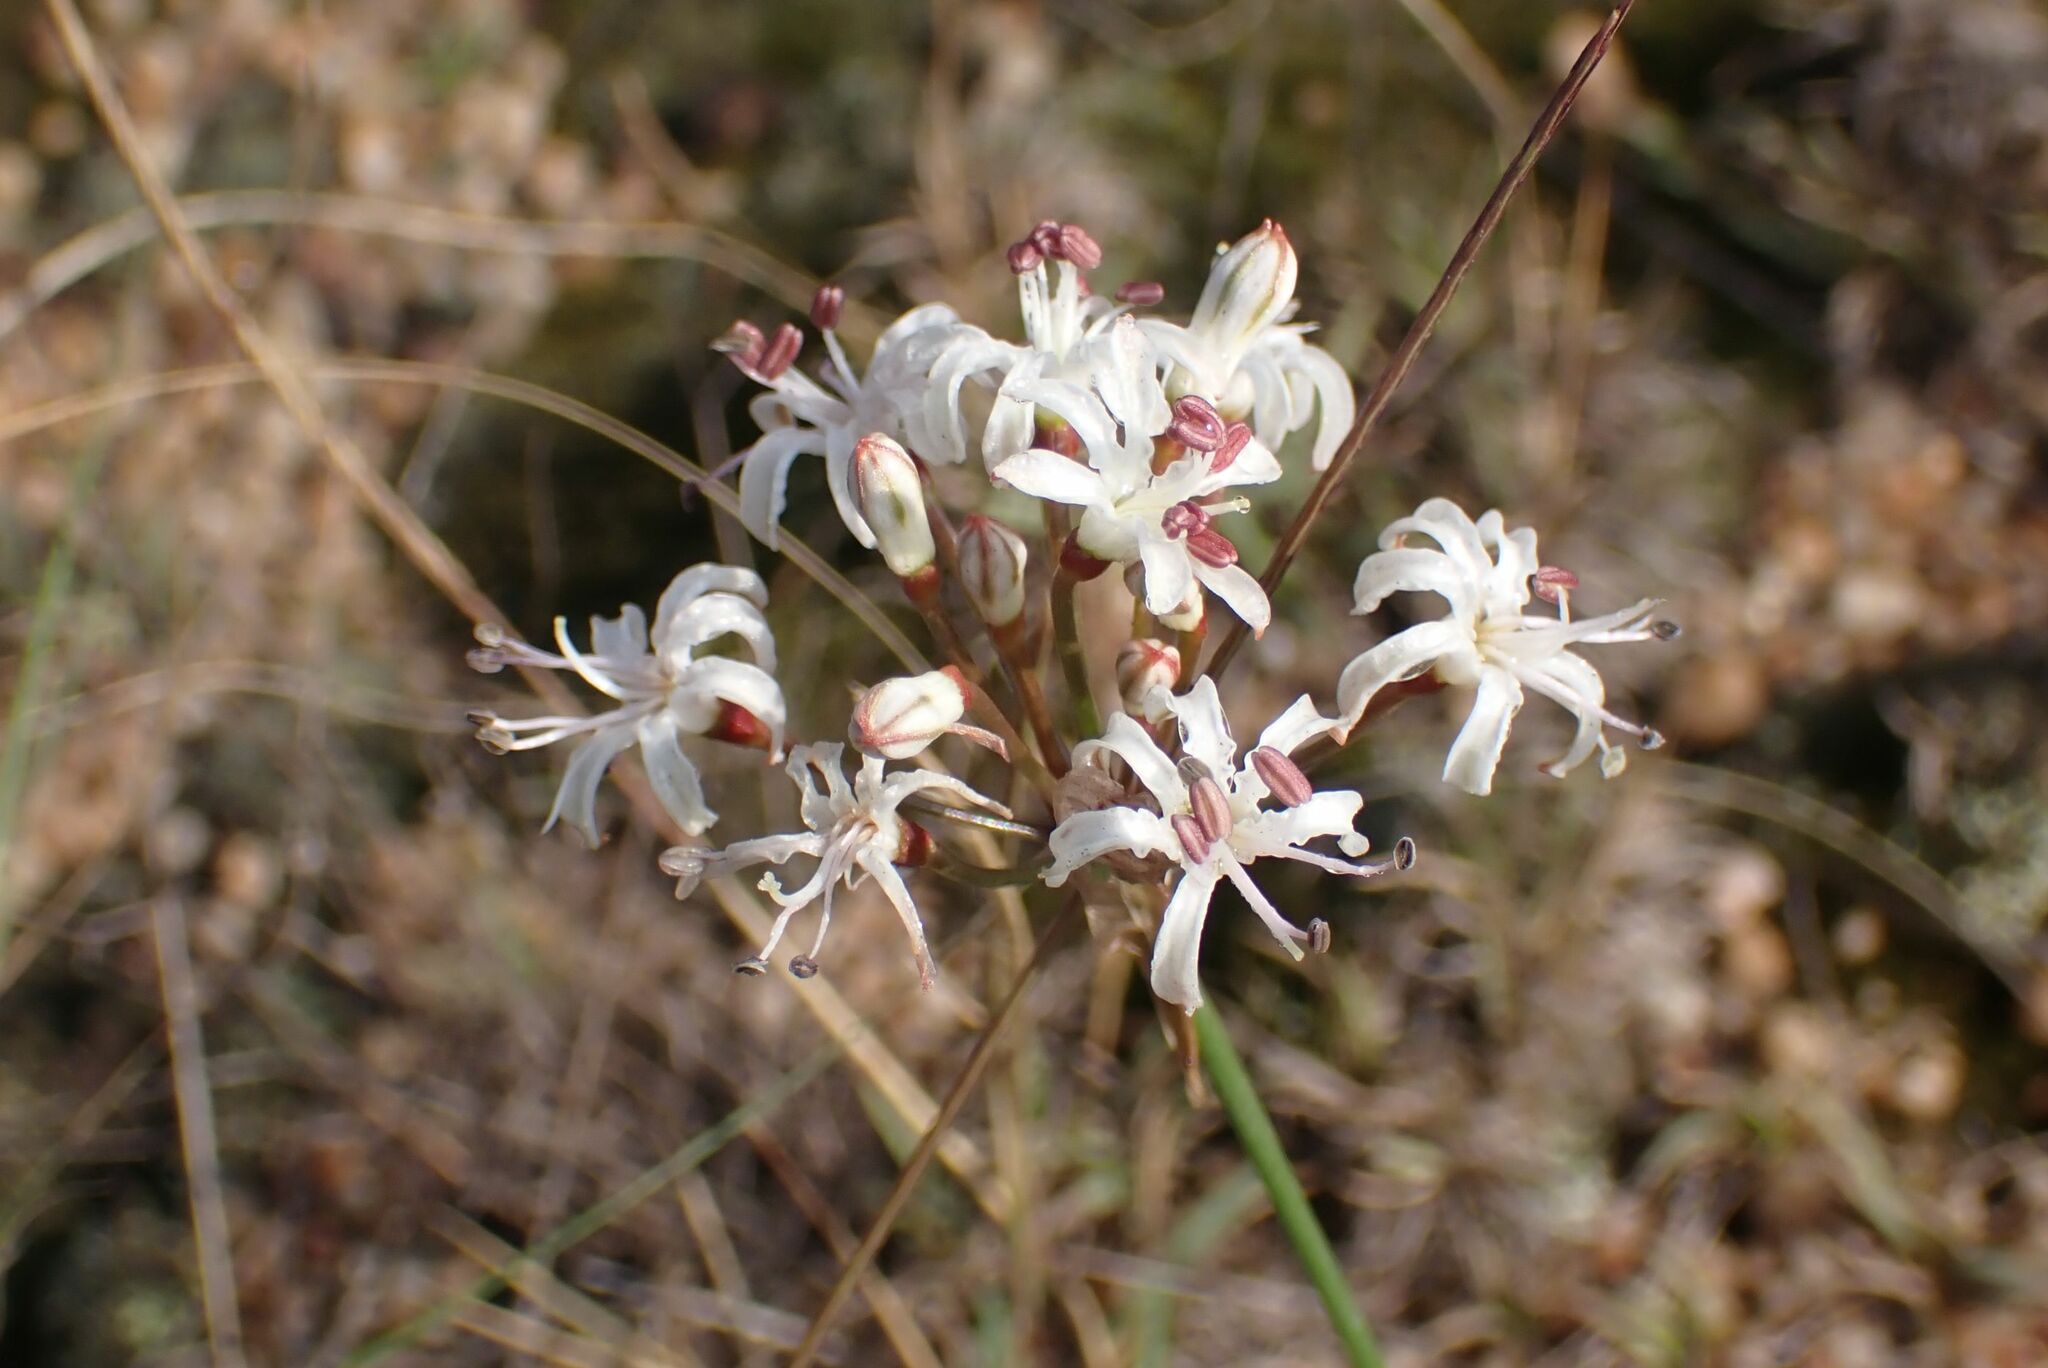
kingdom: Plantae
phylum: Tracheophyta
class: Liliopsida
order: Asparagales
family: Amaryllidaceae
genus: Nerine
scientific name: Nerine rehmannii
